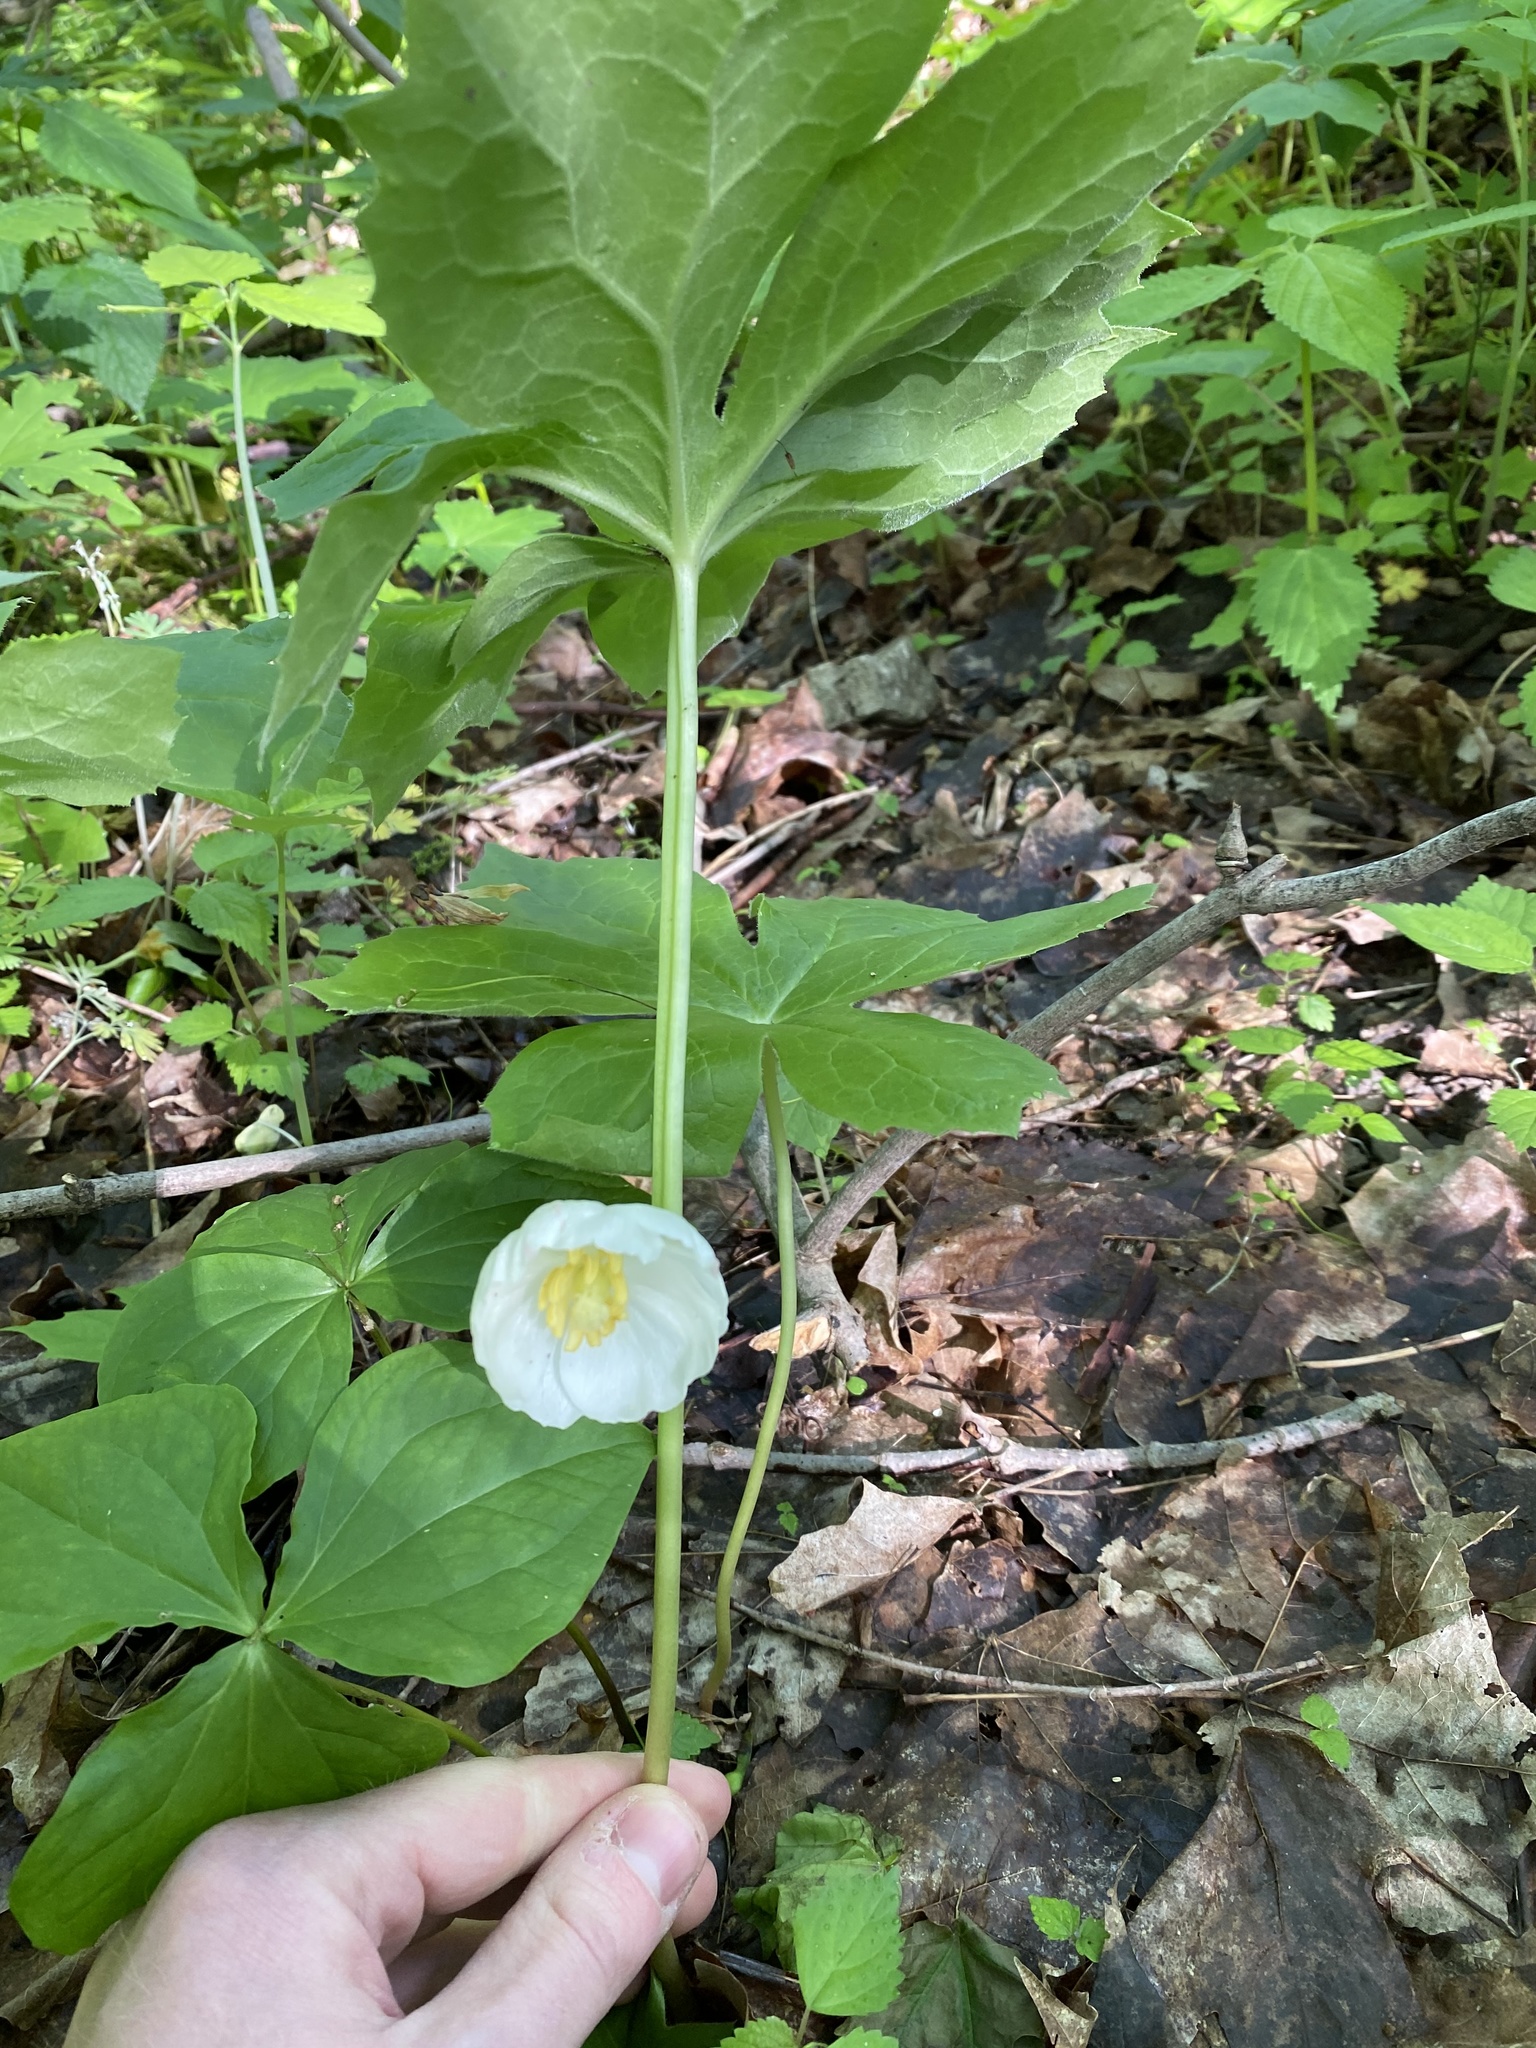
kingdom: Plantae
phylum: Tracheophyta
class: Magnoliopsida
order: Ranunculales
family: Berberidaceae
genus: Podophyllum
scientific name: Podophyllum peltatum
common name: Wild mandrake
